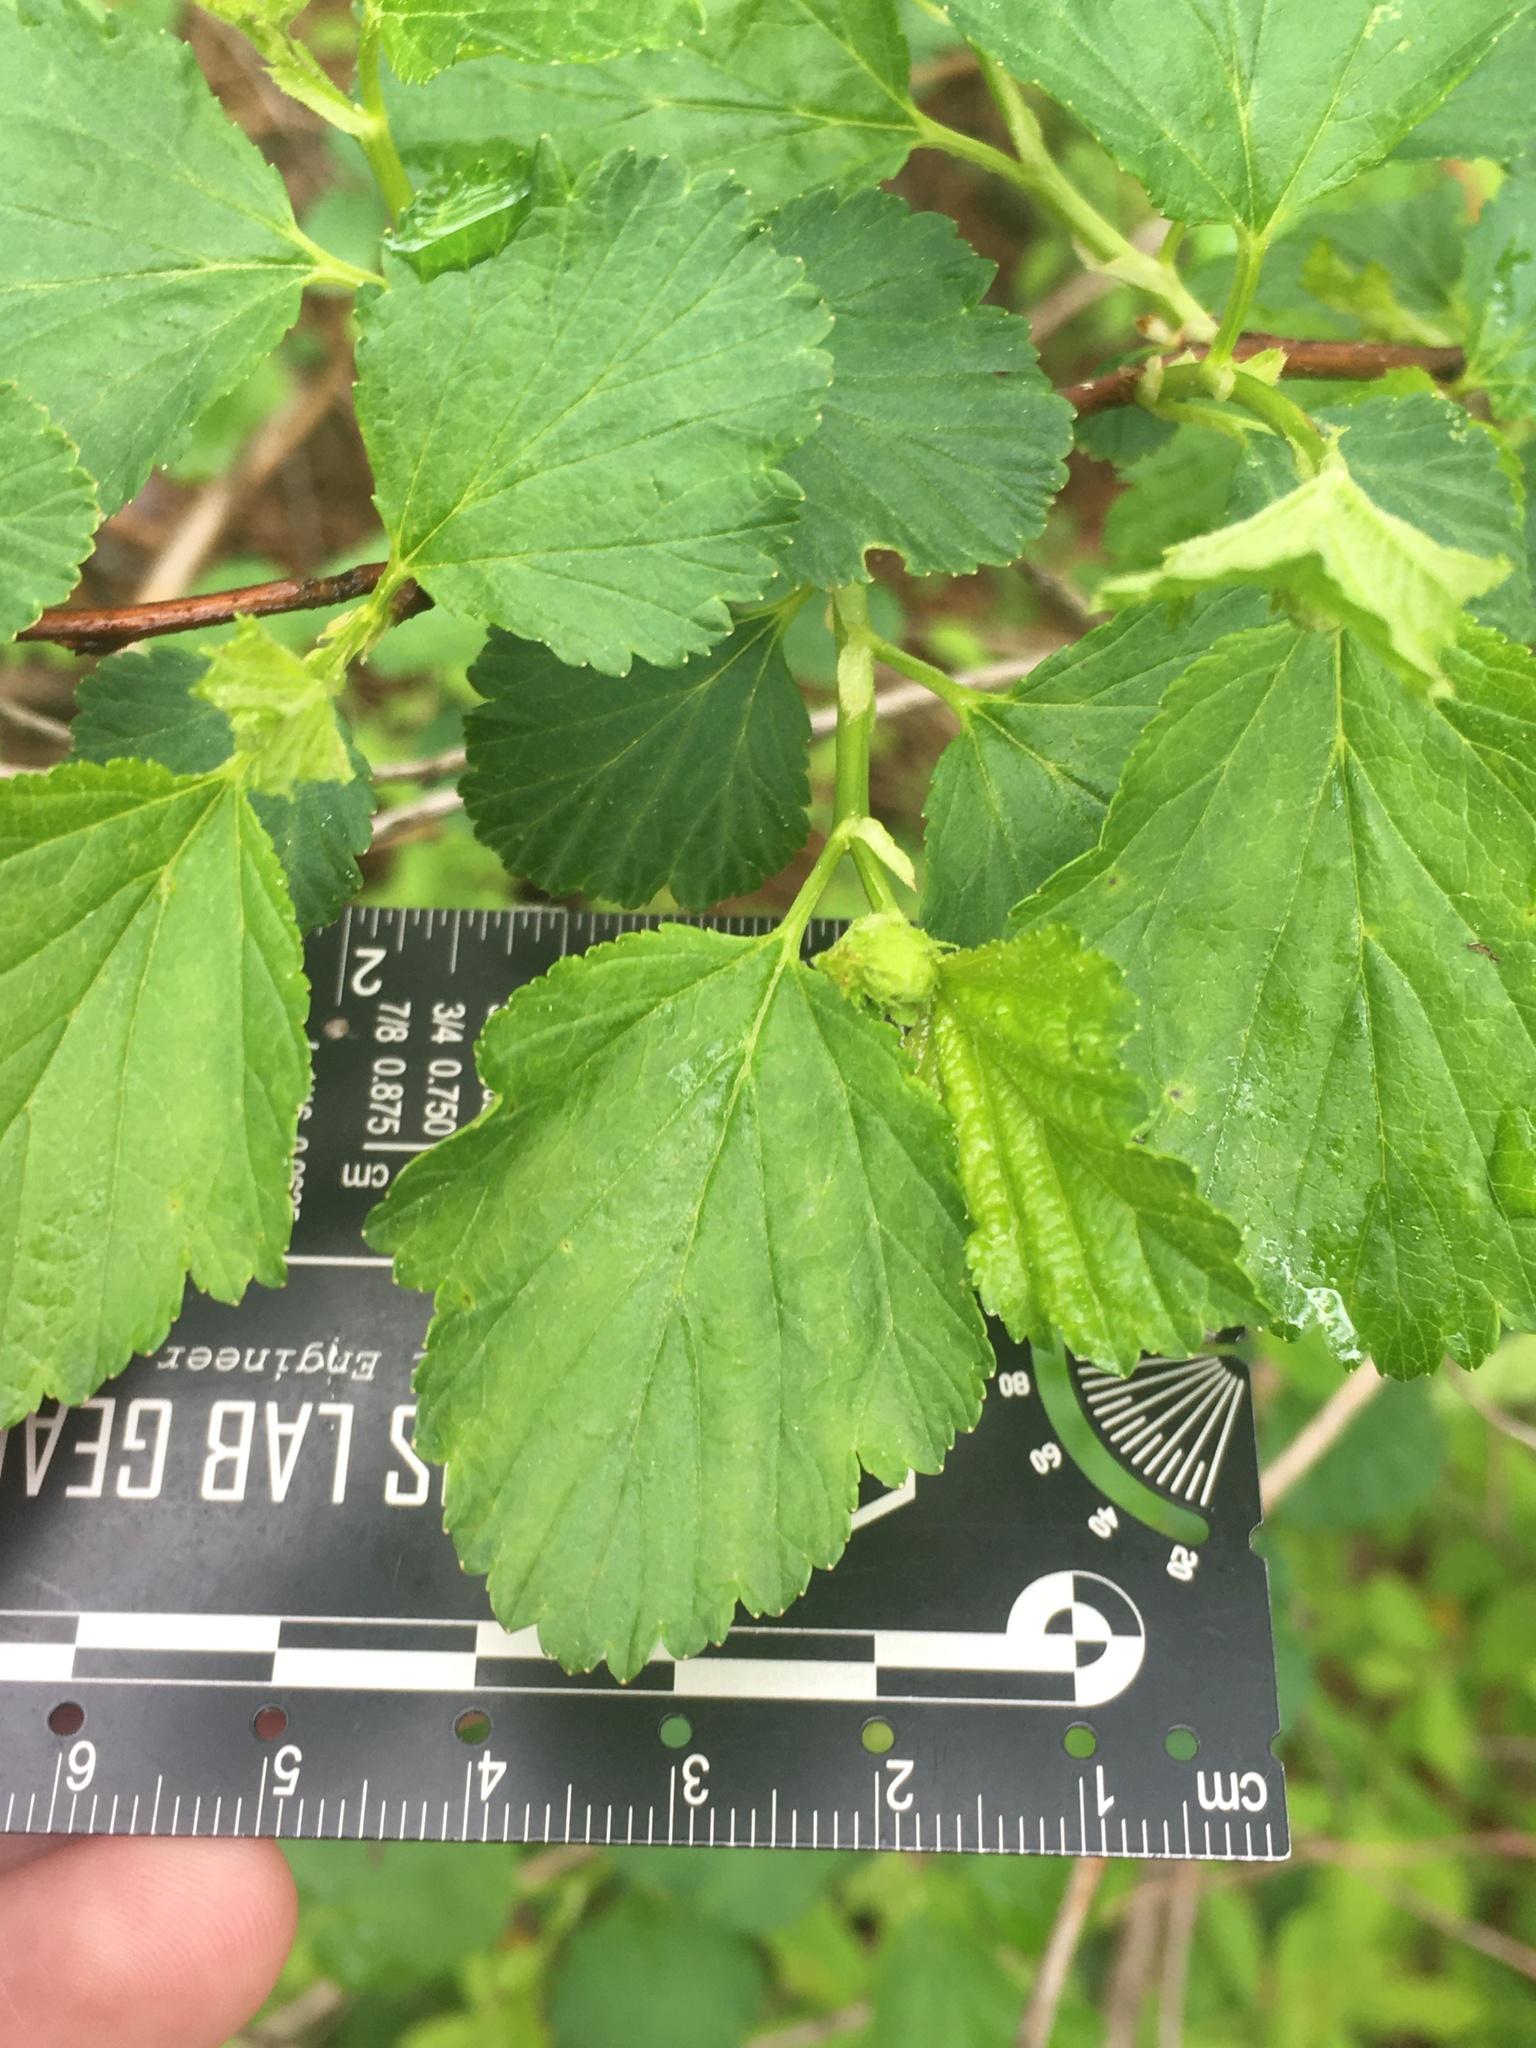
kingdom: Plantae
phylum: Tracheophyta
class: Magnoliopsida
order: Rosales
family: Rosaceae
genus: Physocarpus
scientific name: Physocarpus opulifolius
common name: Ninebark
